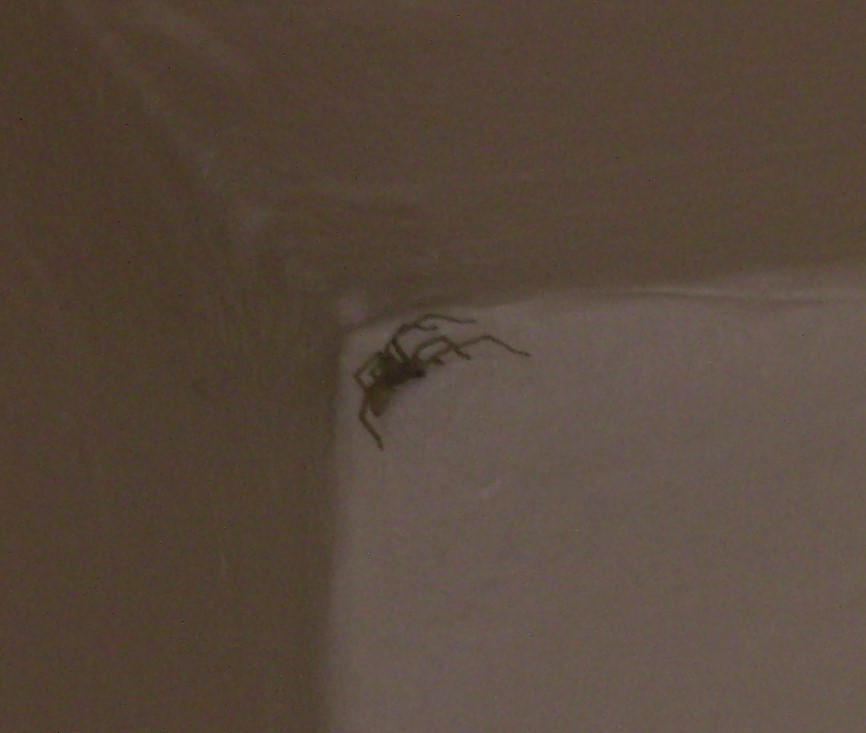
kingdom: Animalia
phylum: Arthropoda
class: Arachnida
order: Araneae
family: Cheiracanthiidae
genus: Cheiracanthium
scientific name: Cheiracanthium mildei
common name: Northern yellow sac spider
